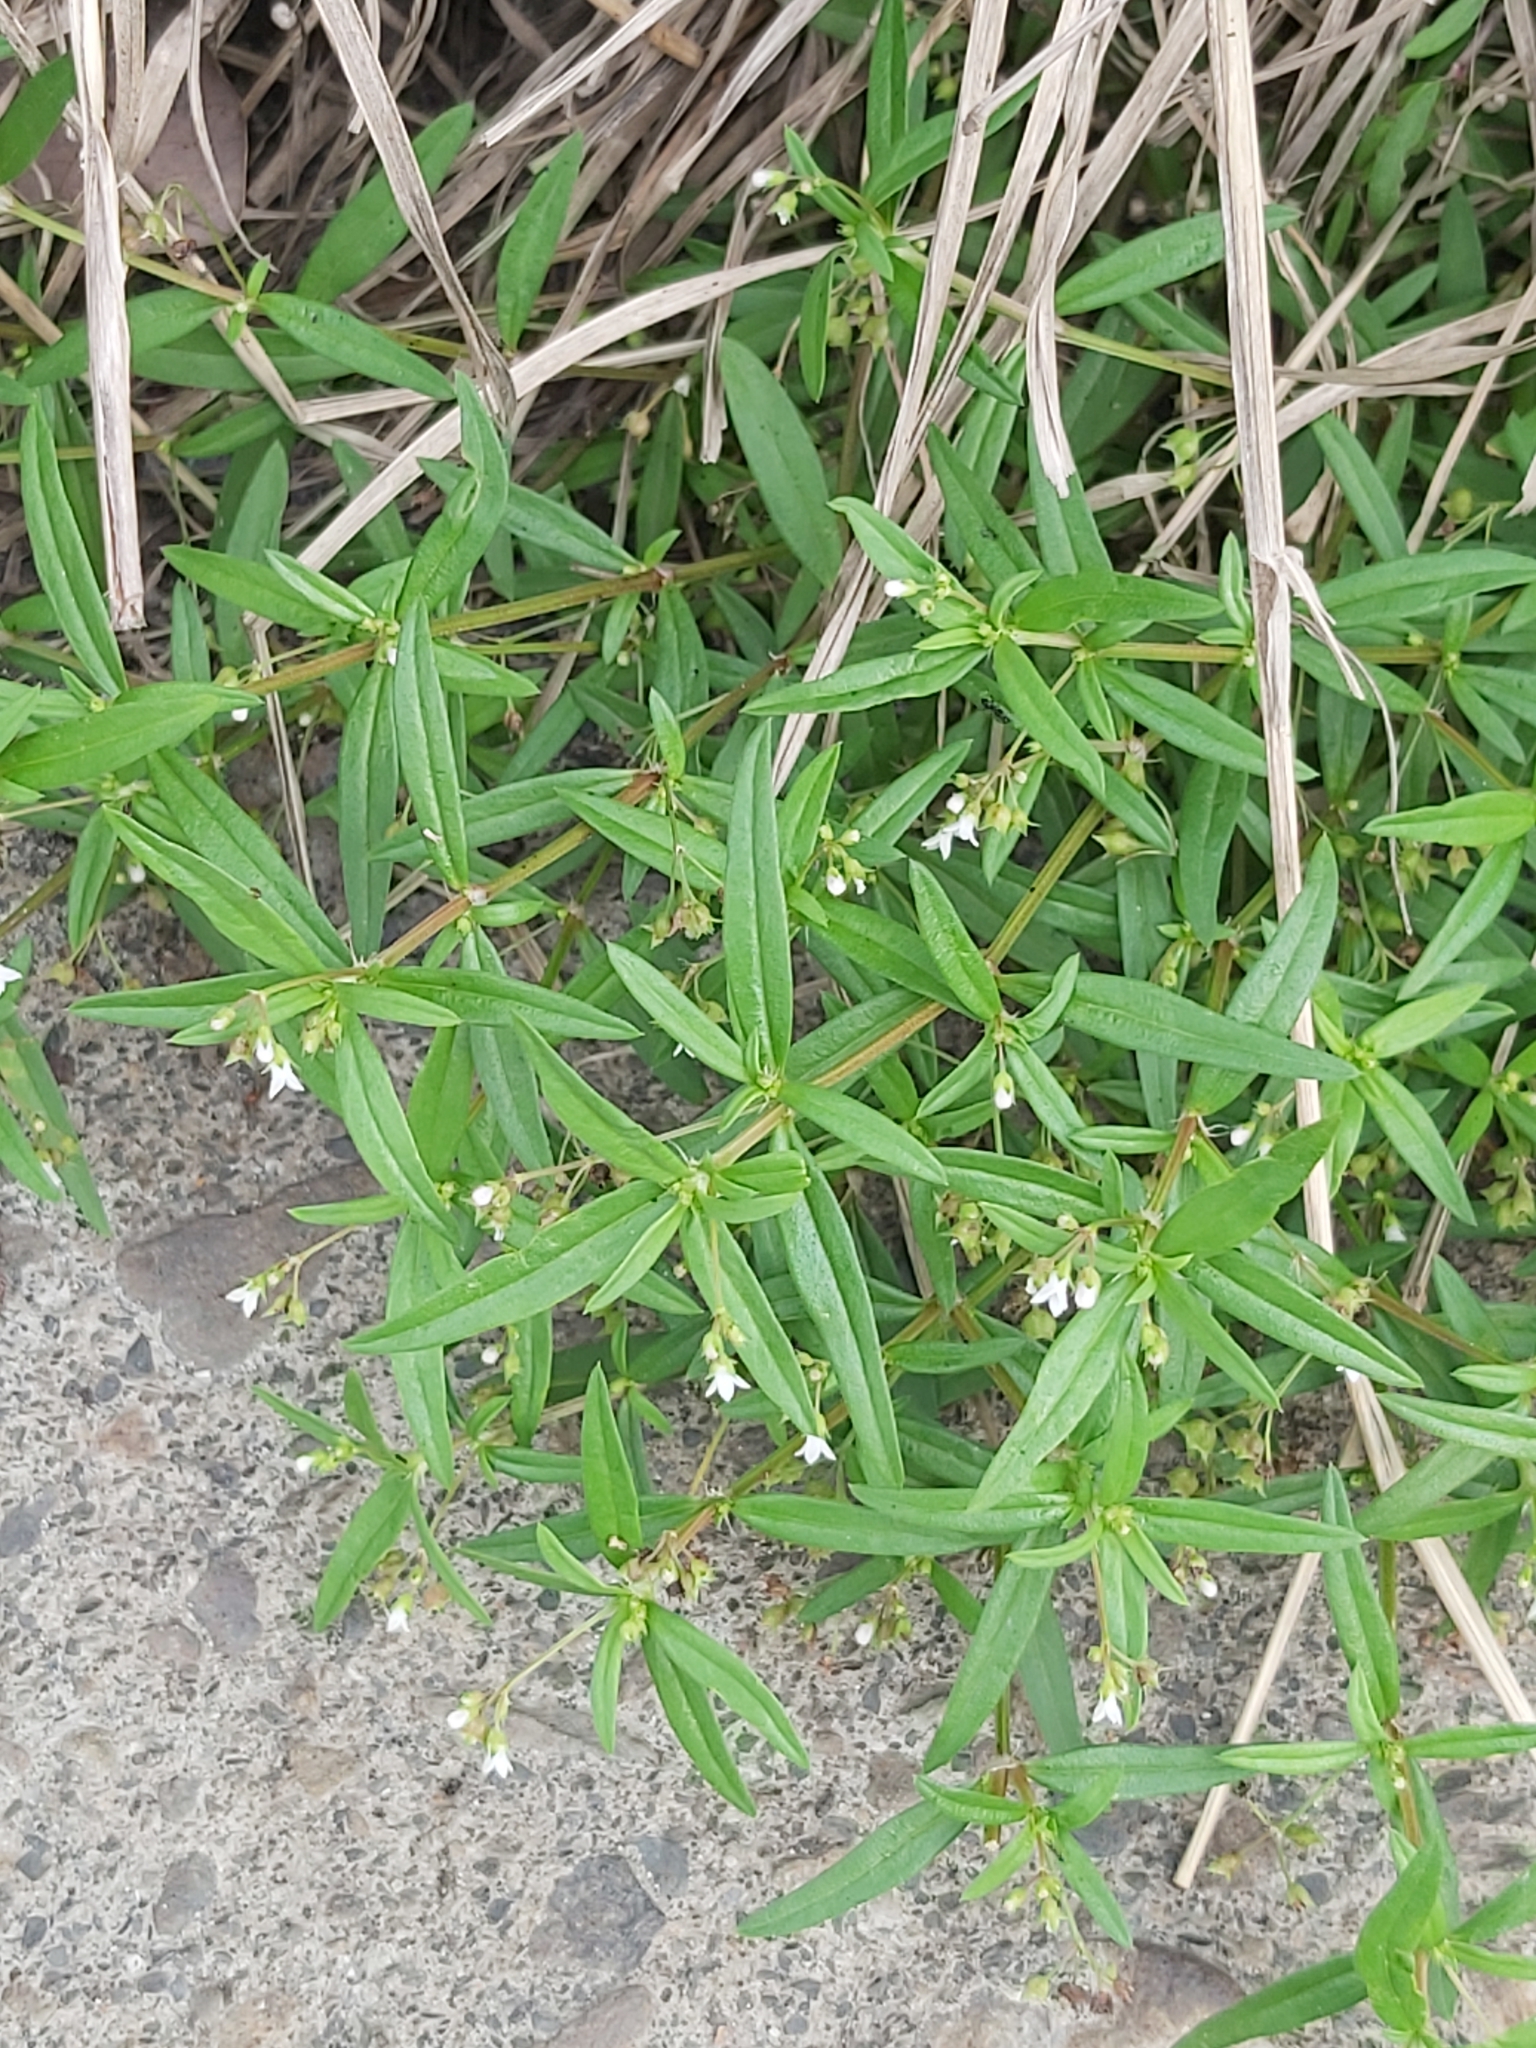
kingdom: Plantae
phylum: Tracheophyta
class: Magnoliopsida
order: Gentianales
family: Rubiaceae
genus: Oldenlandia
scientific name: Oldenlandia corymbosa
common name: Flat-top mille graines
